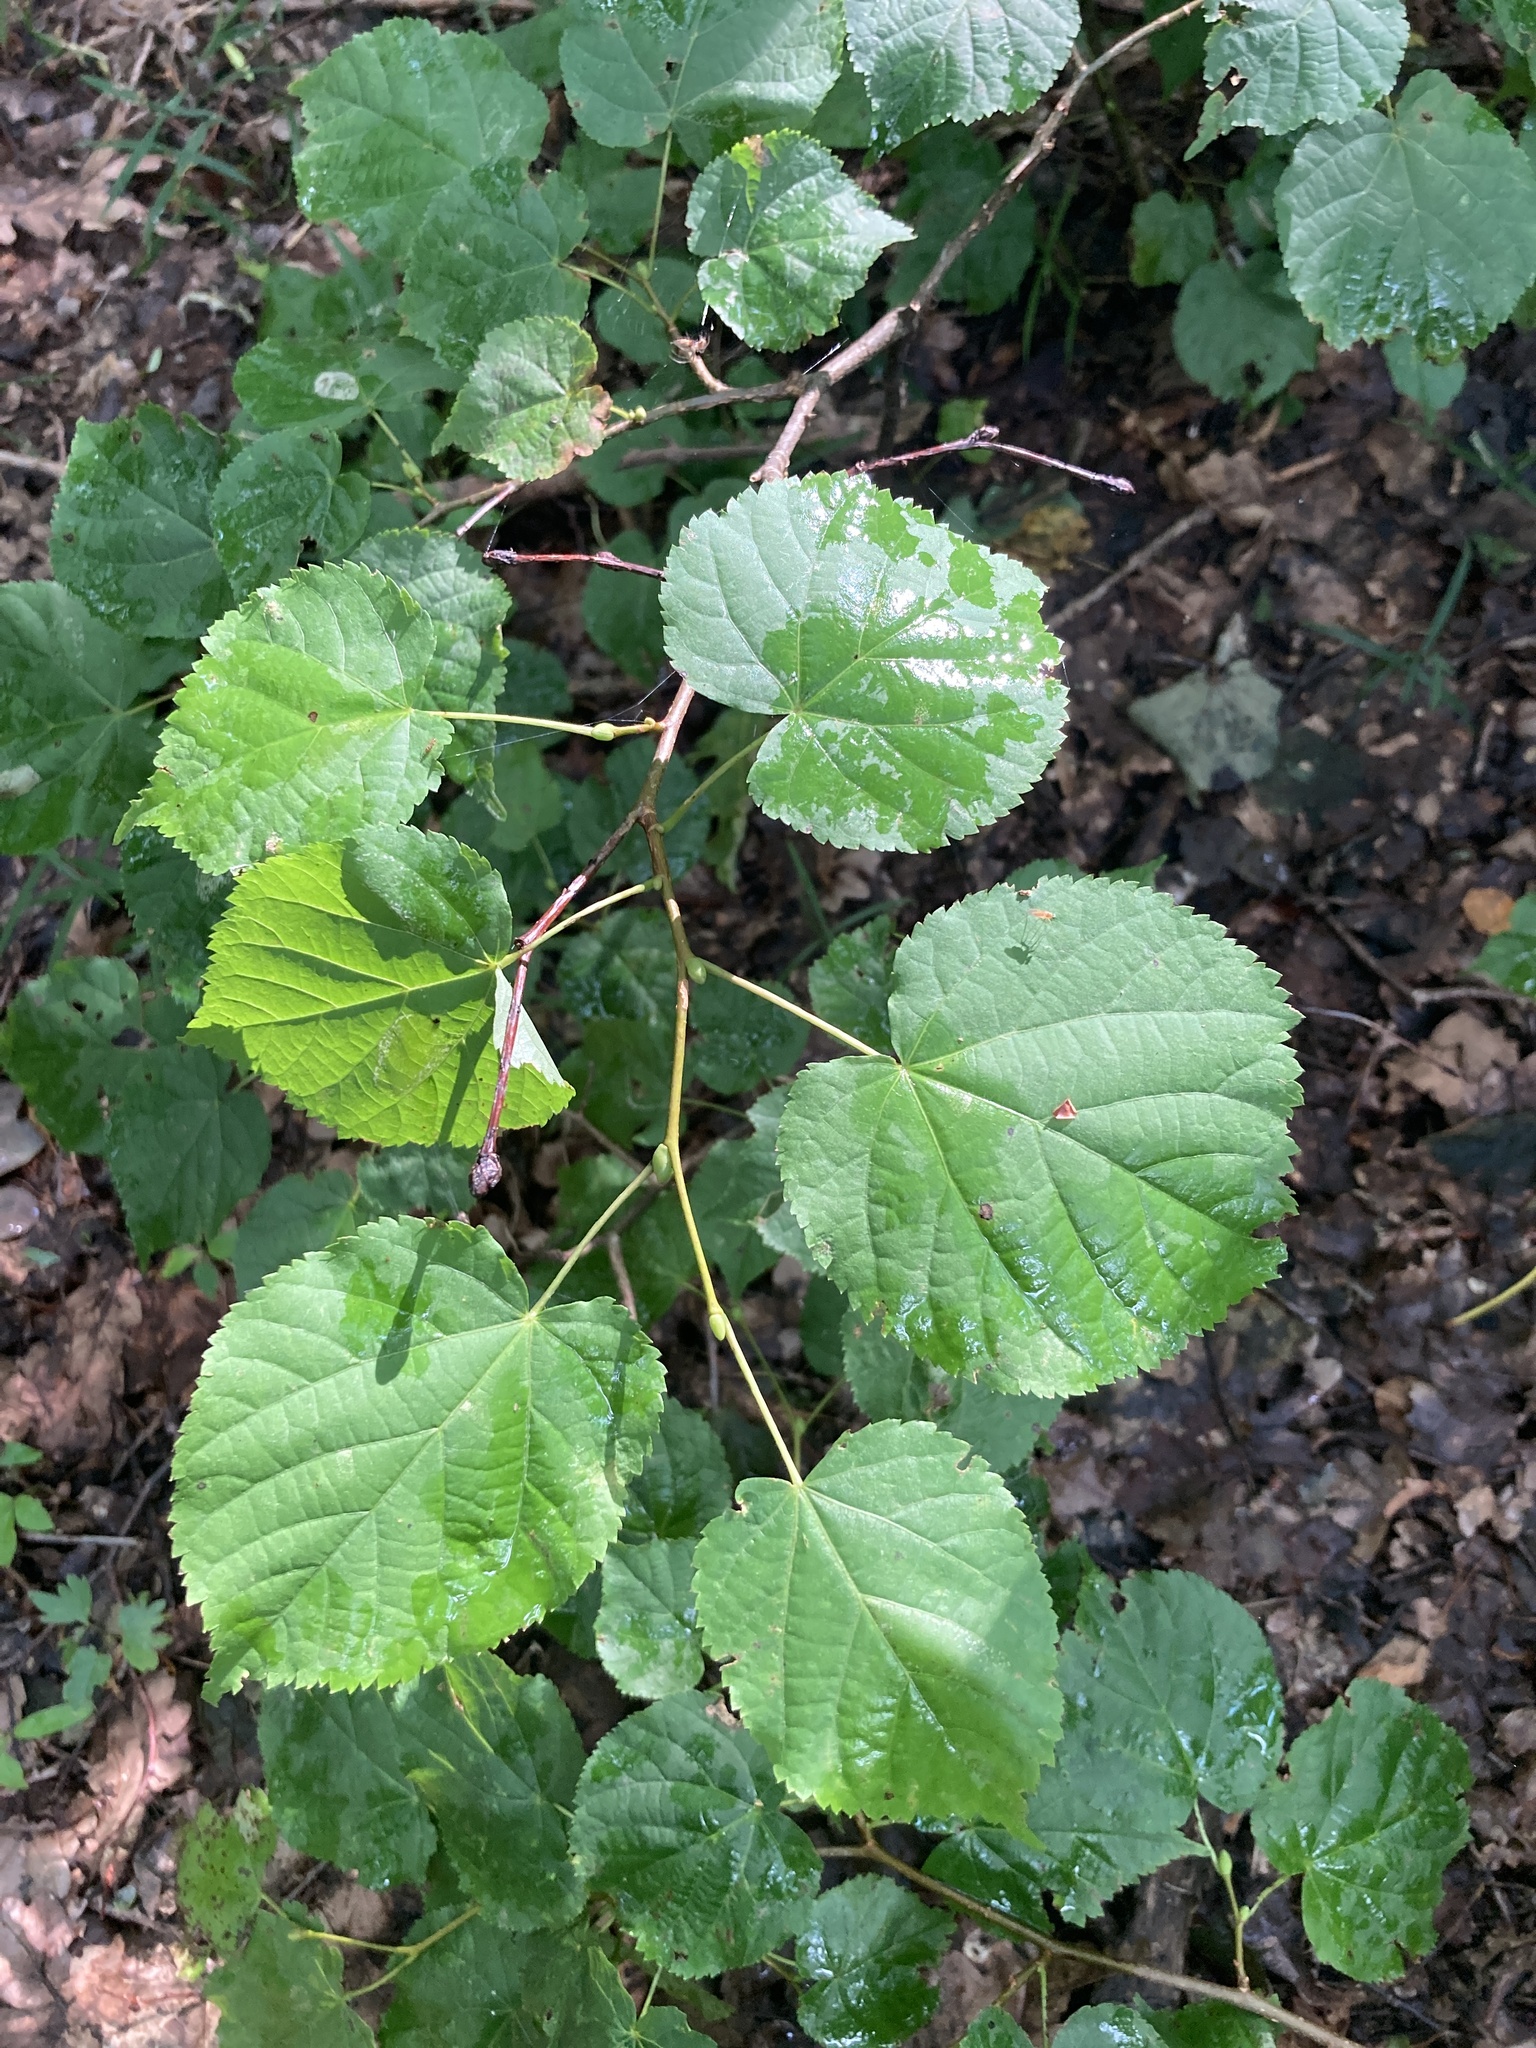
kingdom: Plantae
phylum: Tracheophyta
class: Magnoliopsida
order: Malvales
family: Malvaceae
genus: Tilia
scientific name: Tilia cordata
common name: Small-leaved lime
